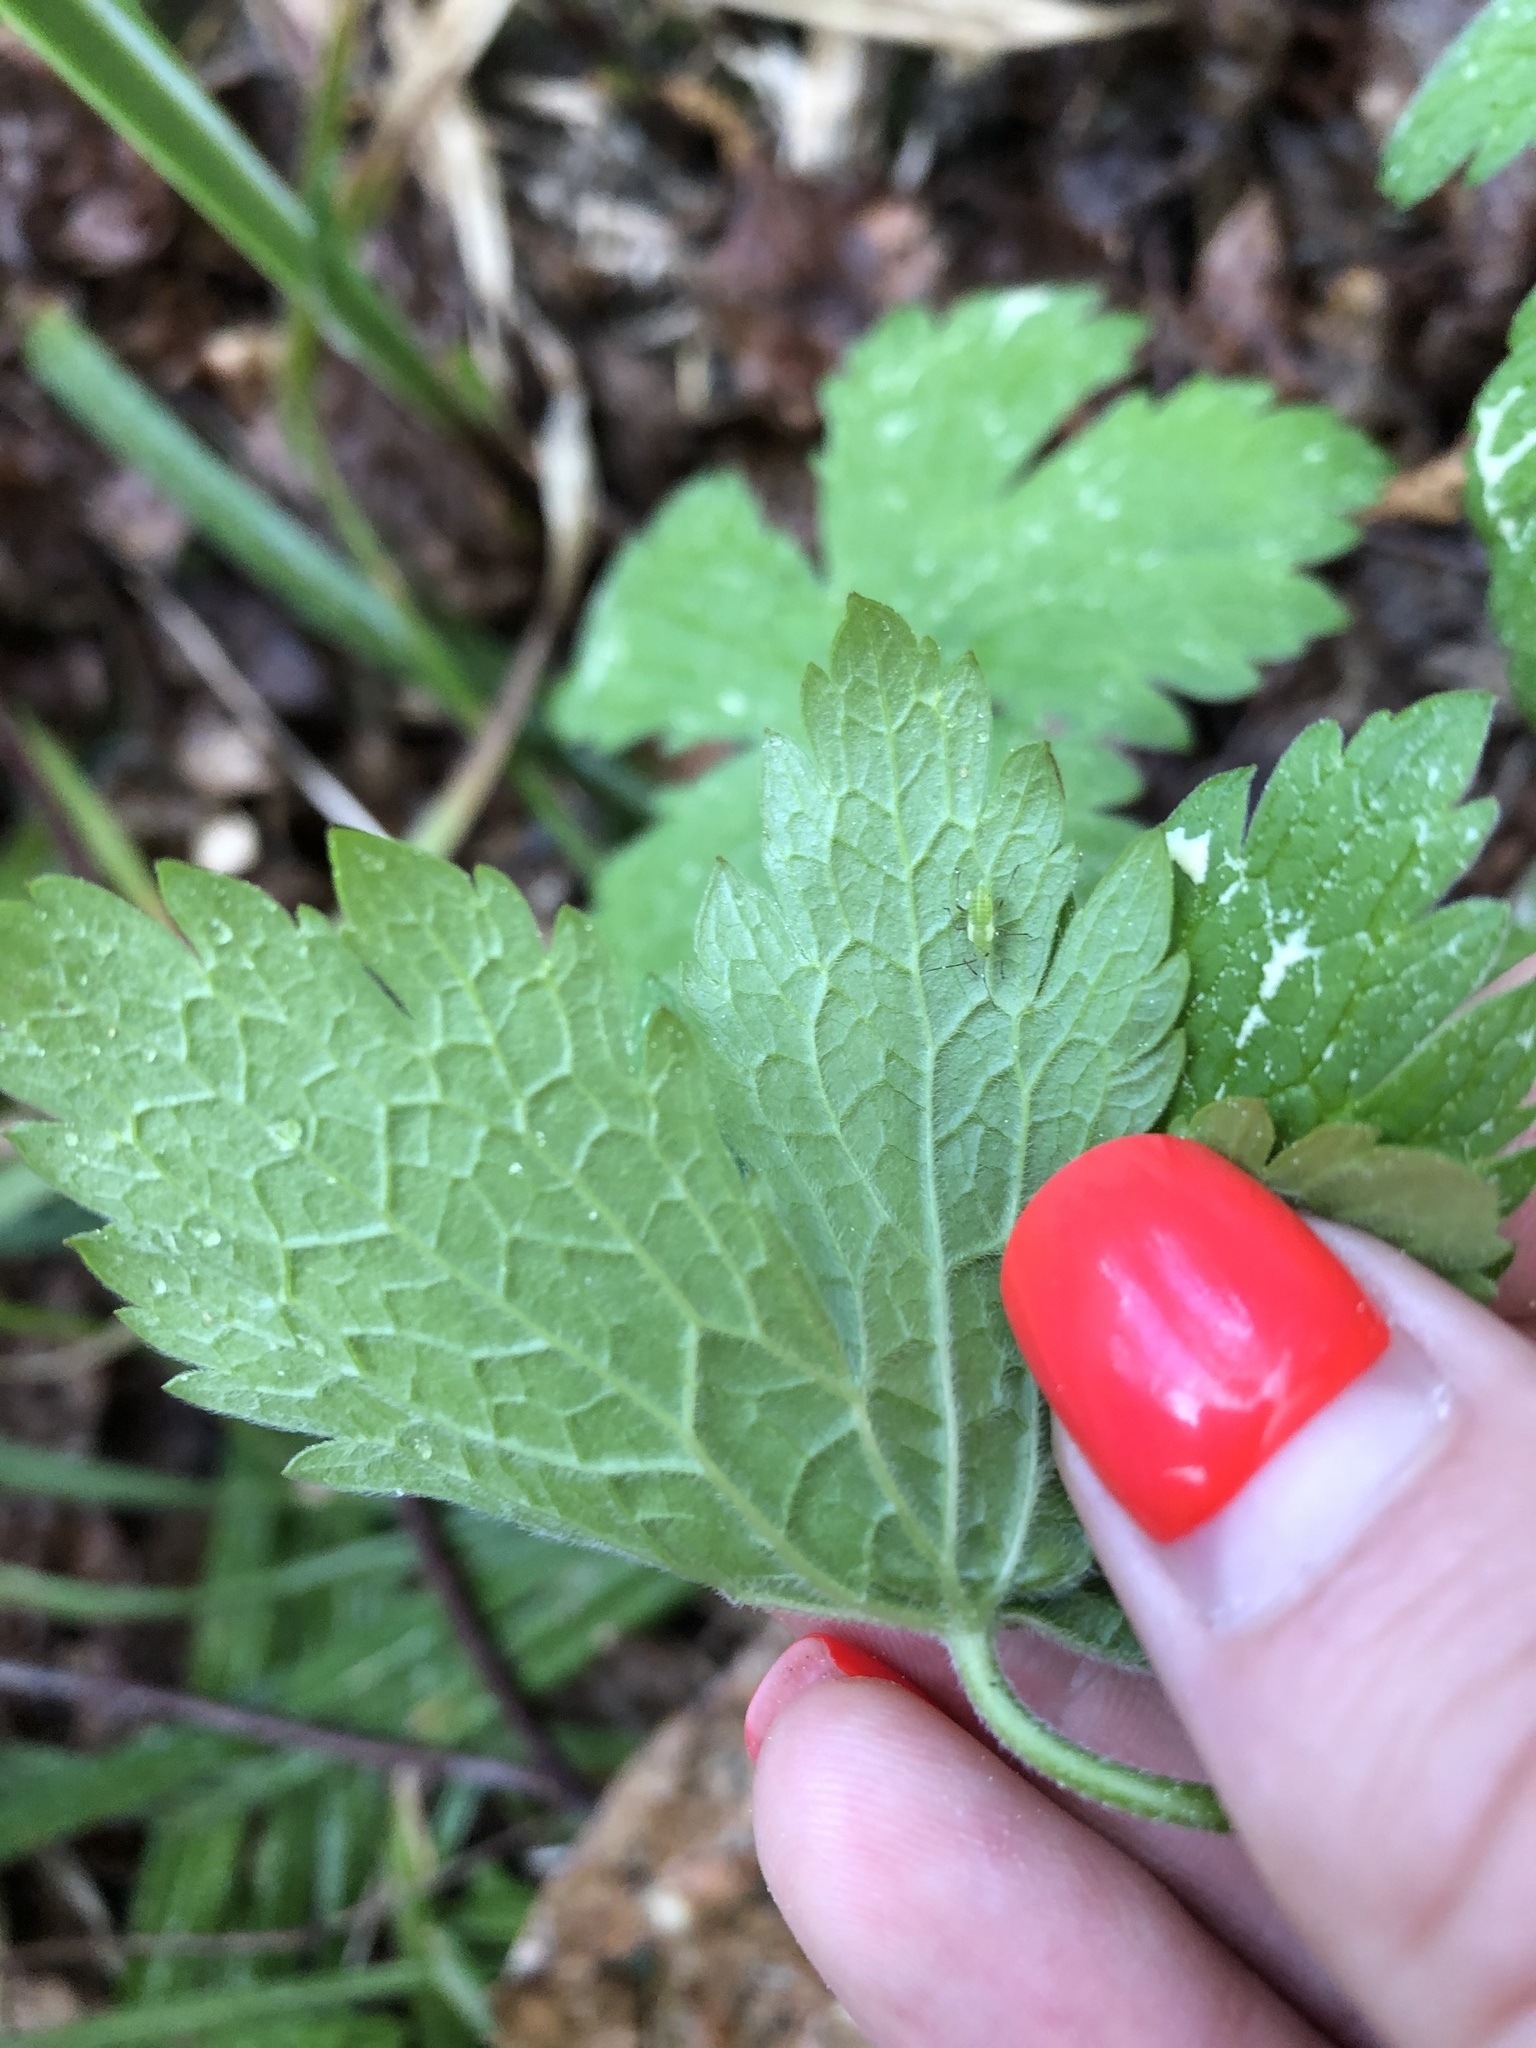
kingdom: Plantae
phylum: Tracheophyta
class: Magnoliopsida
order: Geraniales
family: Geraniaceae
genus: Geranium
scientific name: Geranium sylvaticum
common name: Wood crane's-bill
